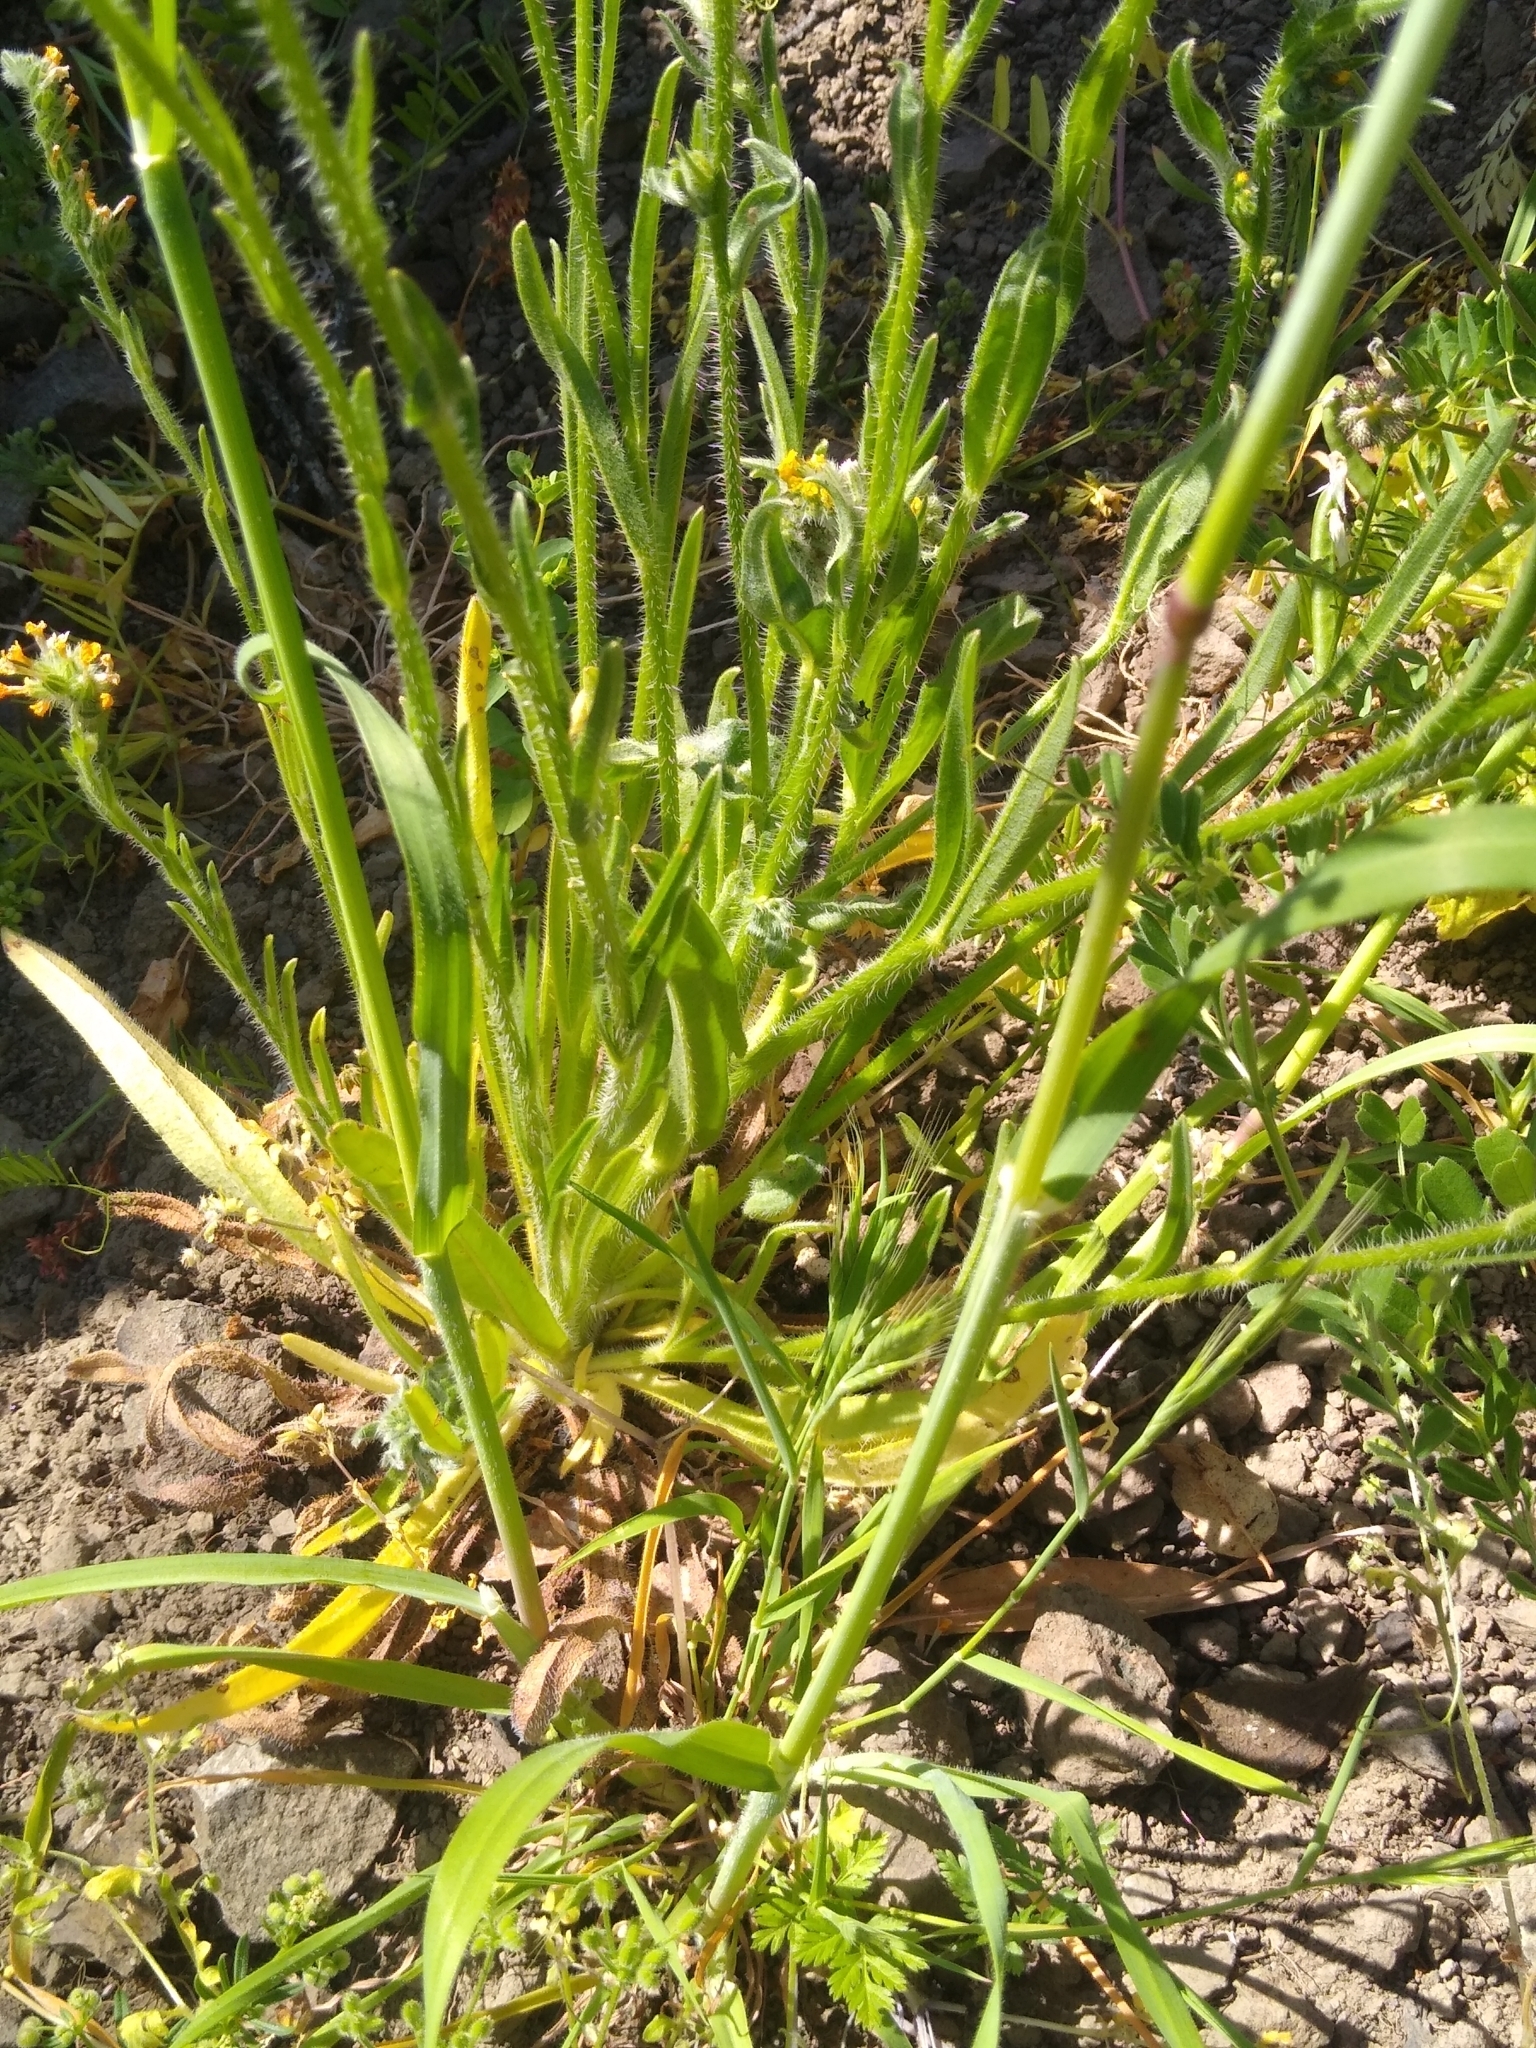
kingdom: Plantae
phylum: Tracheophyta
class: Magnoliopsida
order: Boraginales
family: Boraginaceae
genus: Amsinckia
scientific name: Amsinckia menziesii
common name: Menzies' fiddleneck
